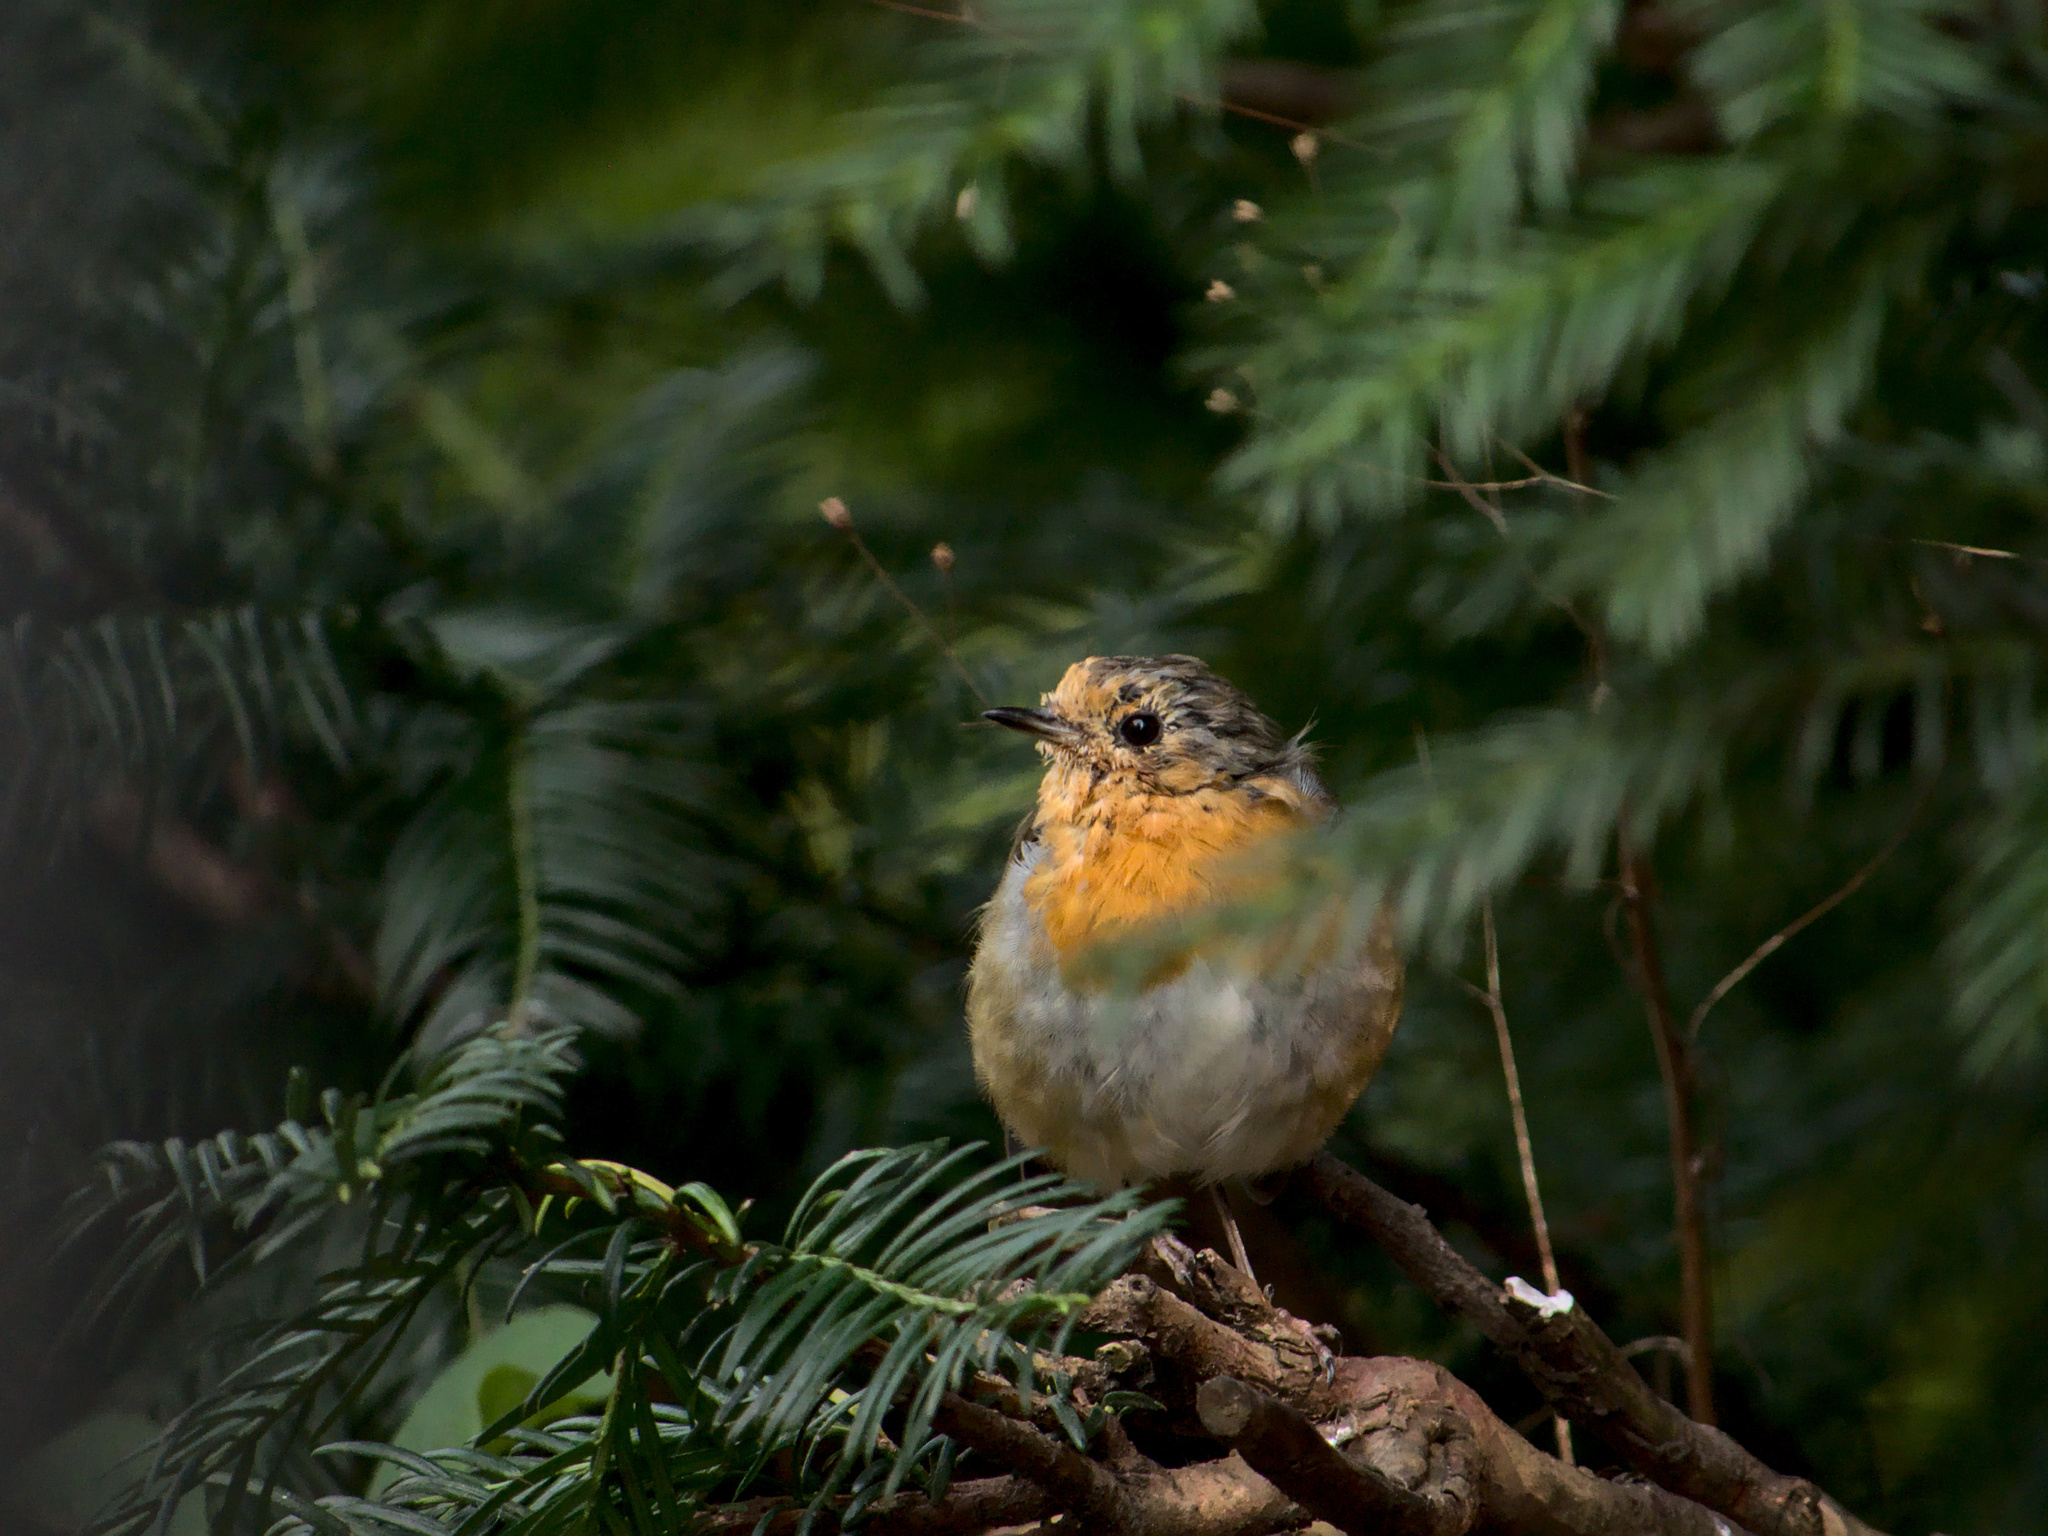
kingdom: Animalia
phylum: Chordata
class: Aves
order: Passeriformes
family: Muscicapidae
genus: Erithacus
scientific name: Erithacus rubecula
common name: European robin
